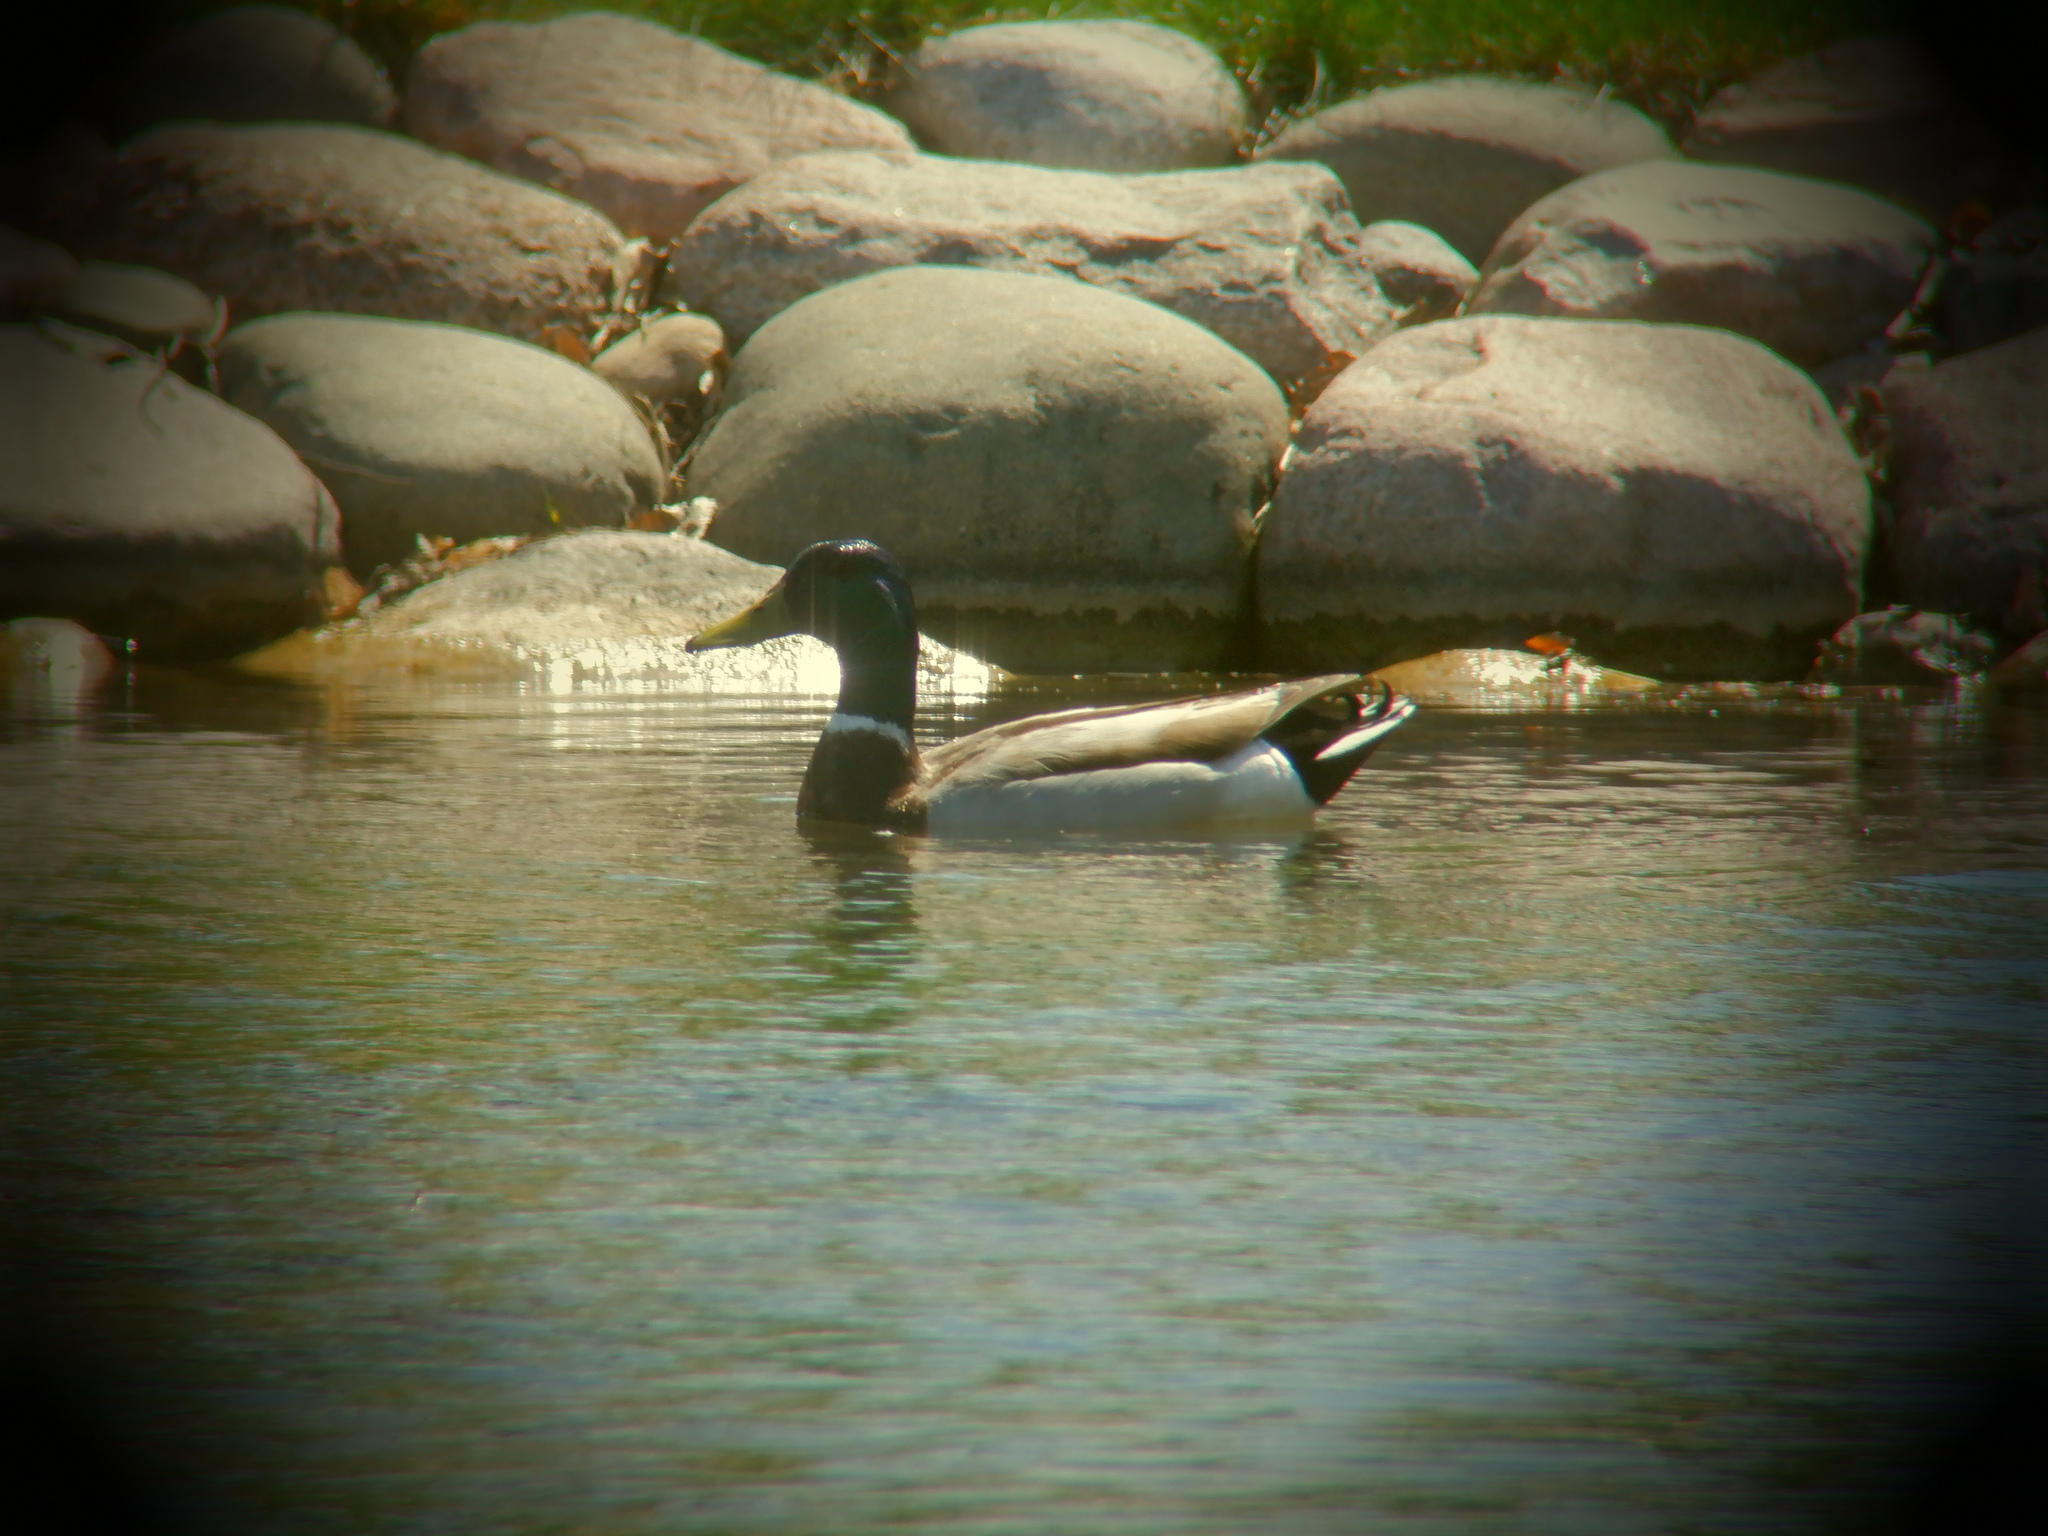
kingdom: Animalia
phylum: Chordata
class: Aves
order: Anseriformes
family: Anatidae
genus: Anas
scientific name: Anas platyrhynchos
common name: Mallard
